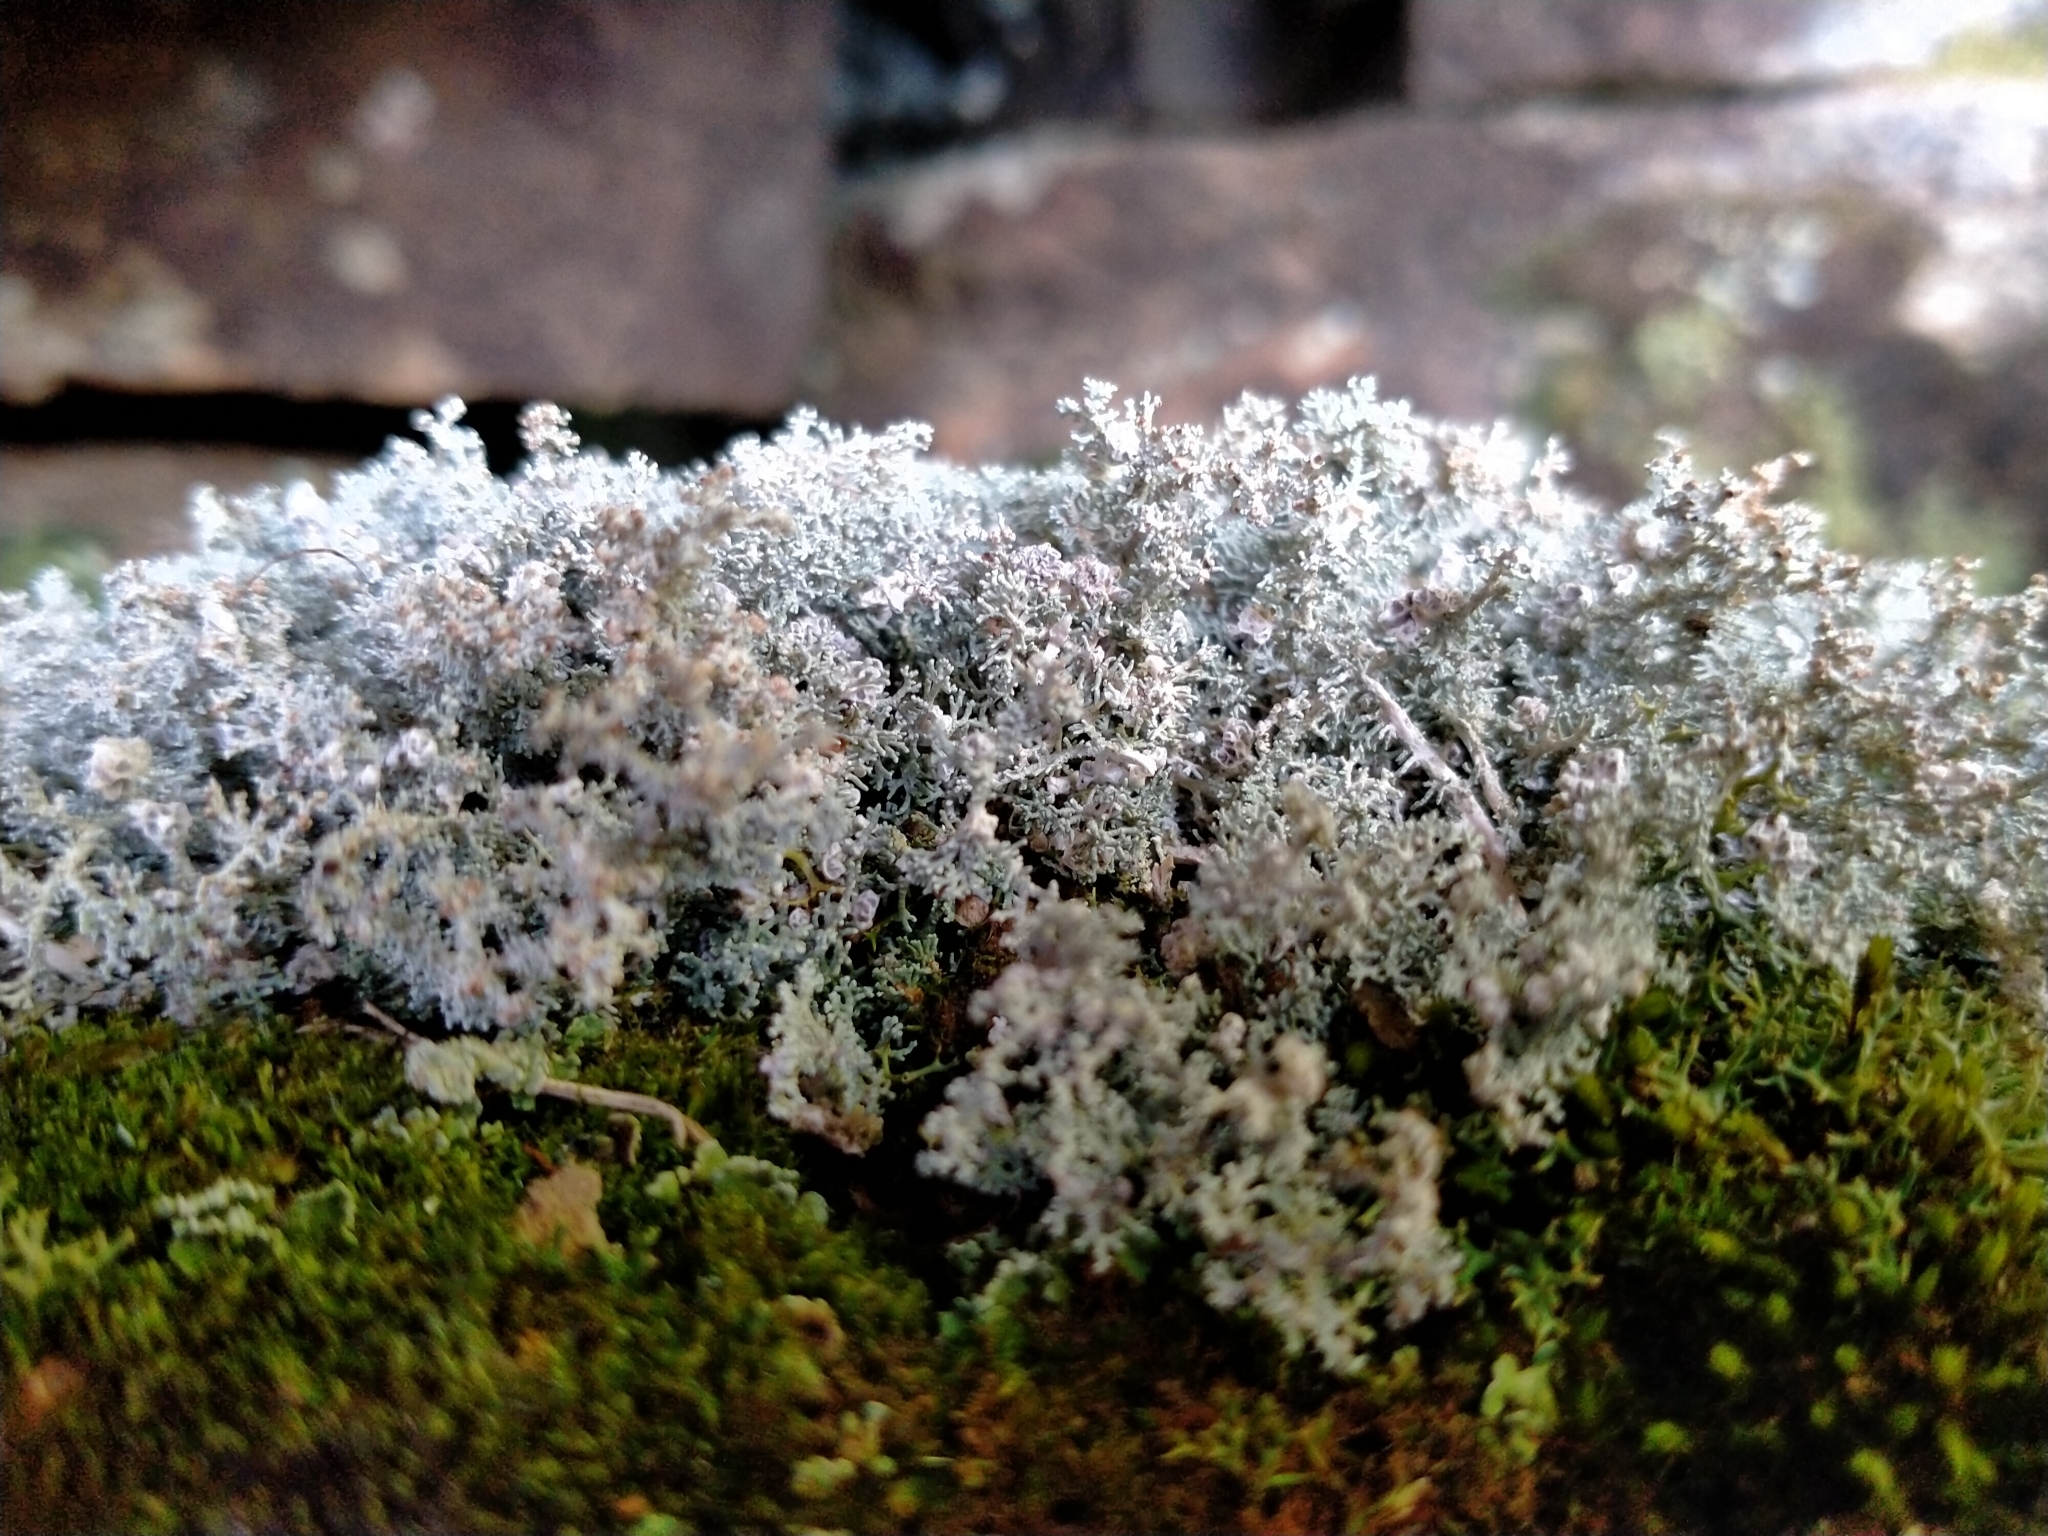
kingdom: Fungi
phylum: Ascomycota
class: Lecanoromycetes
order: Lecanorales
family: Stereocaulaceae
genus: Stereocaulon
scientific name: Stereocaulon ramulosum
